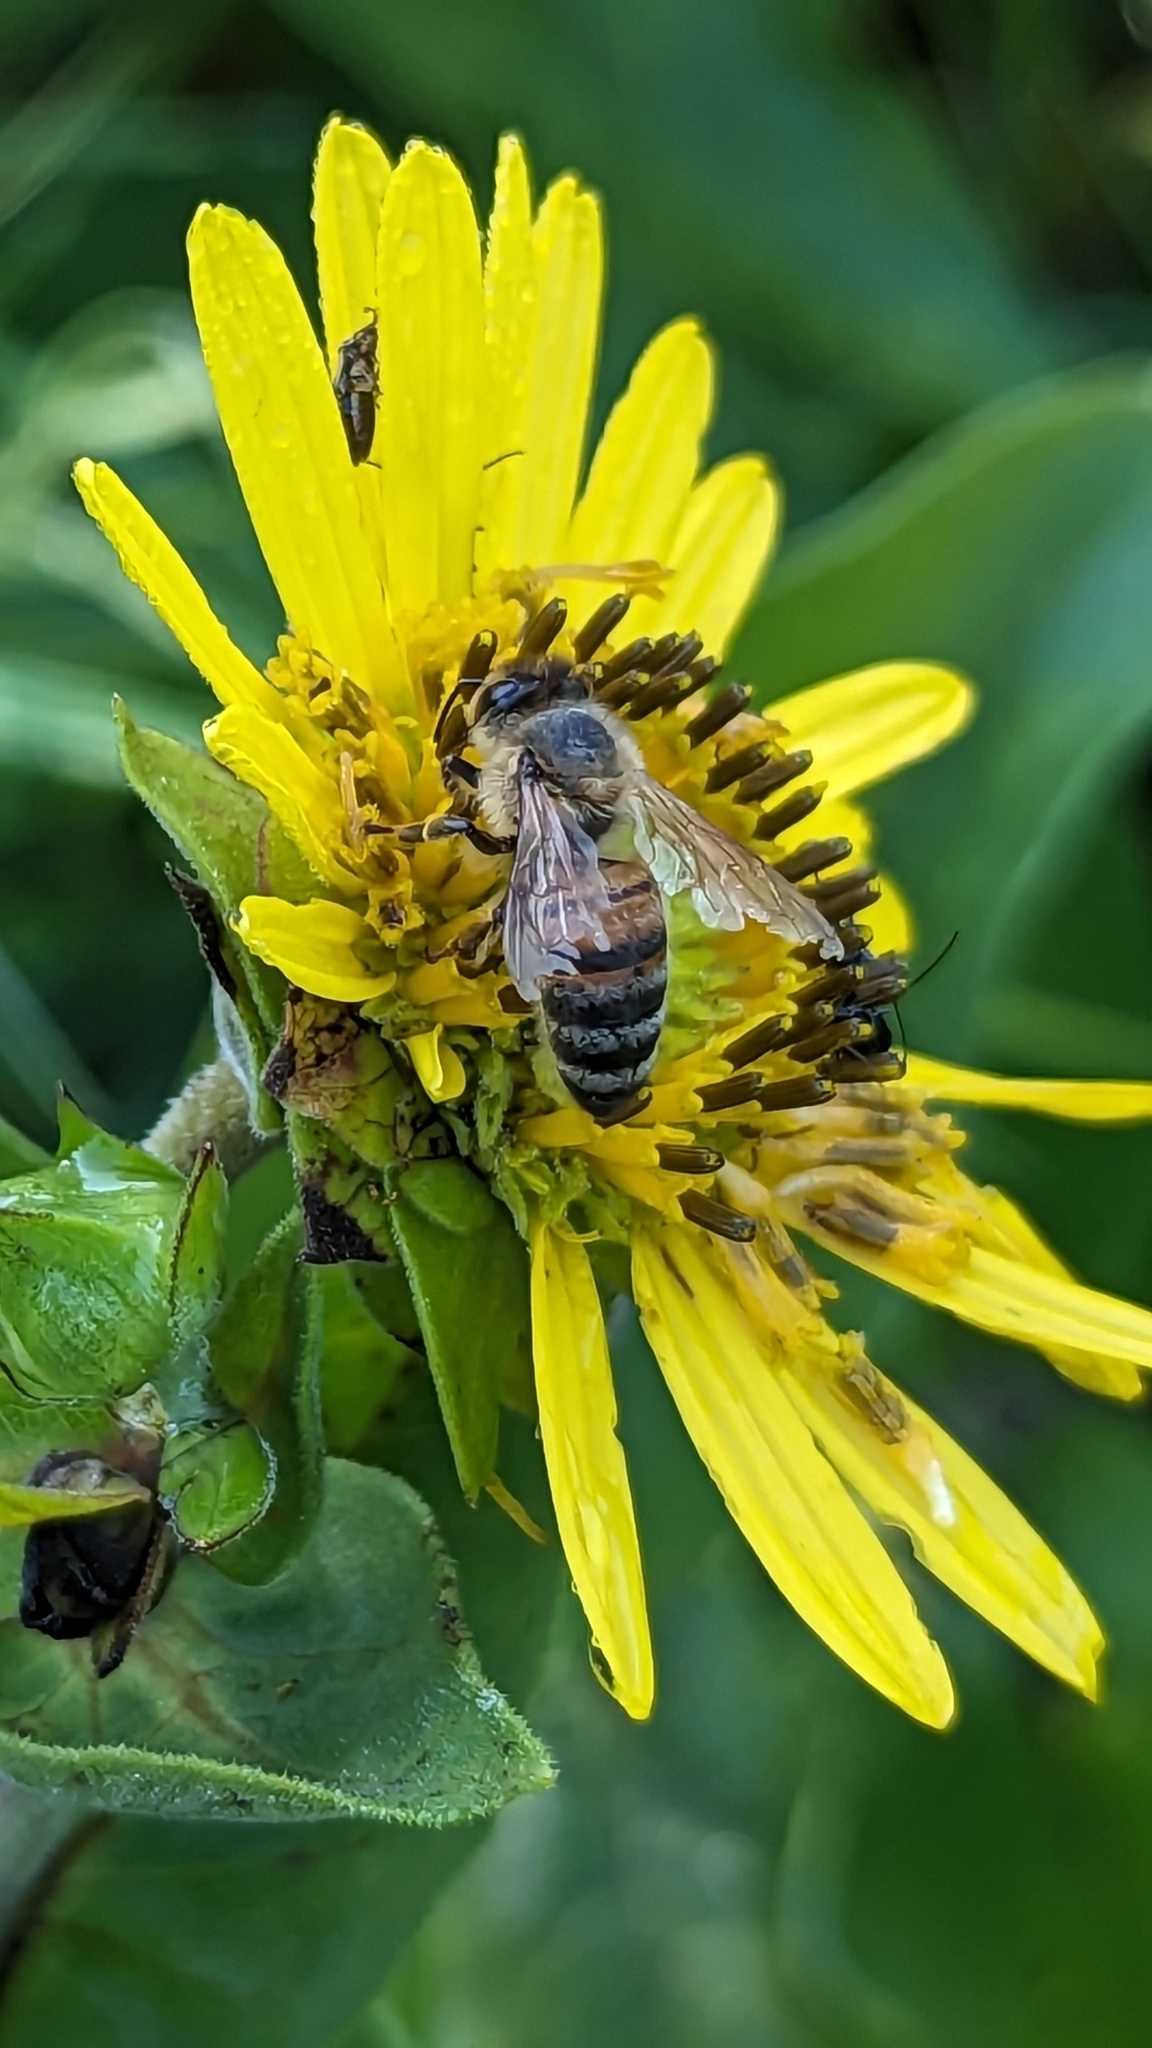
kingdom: Animalia
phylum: Arthropoda
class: Insecta
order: Hymenoptera
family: Apidae
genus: Apis
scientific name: Apis mellifera
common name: Honey bee
